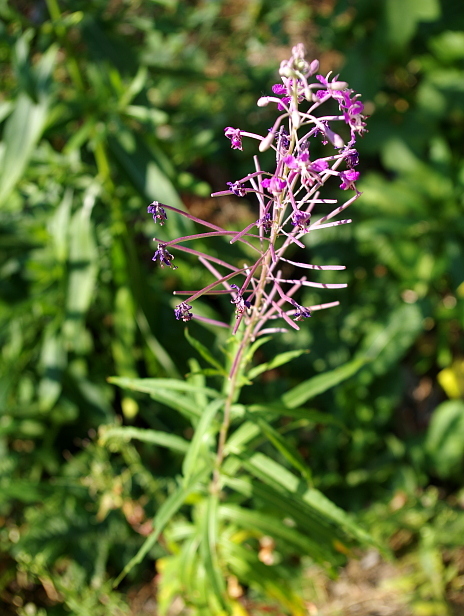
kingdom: Plantae
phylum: Tracheophyta
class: Magnoliopsida
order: Myrtales
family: Onagraceae
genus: Chamaenerion
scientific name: Chamaenerion angustifolium
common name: Fireweed
